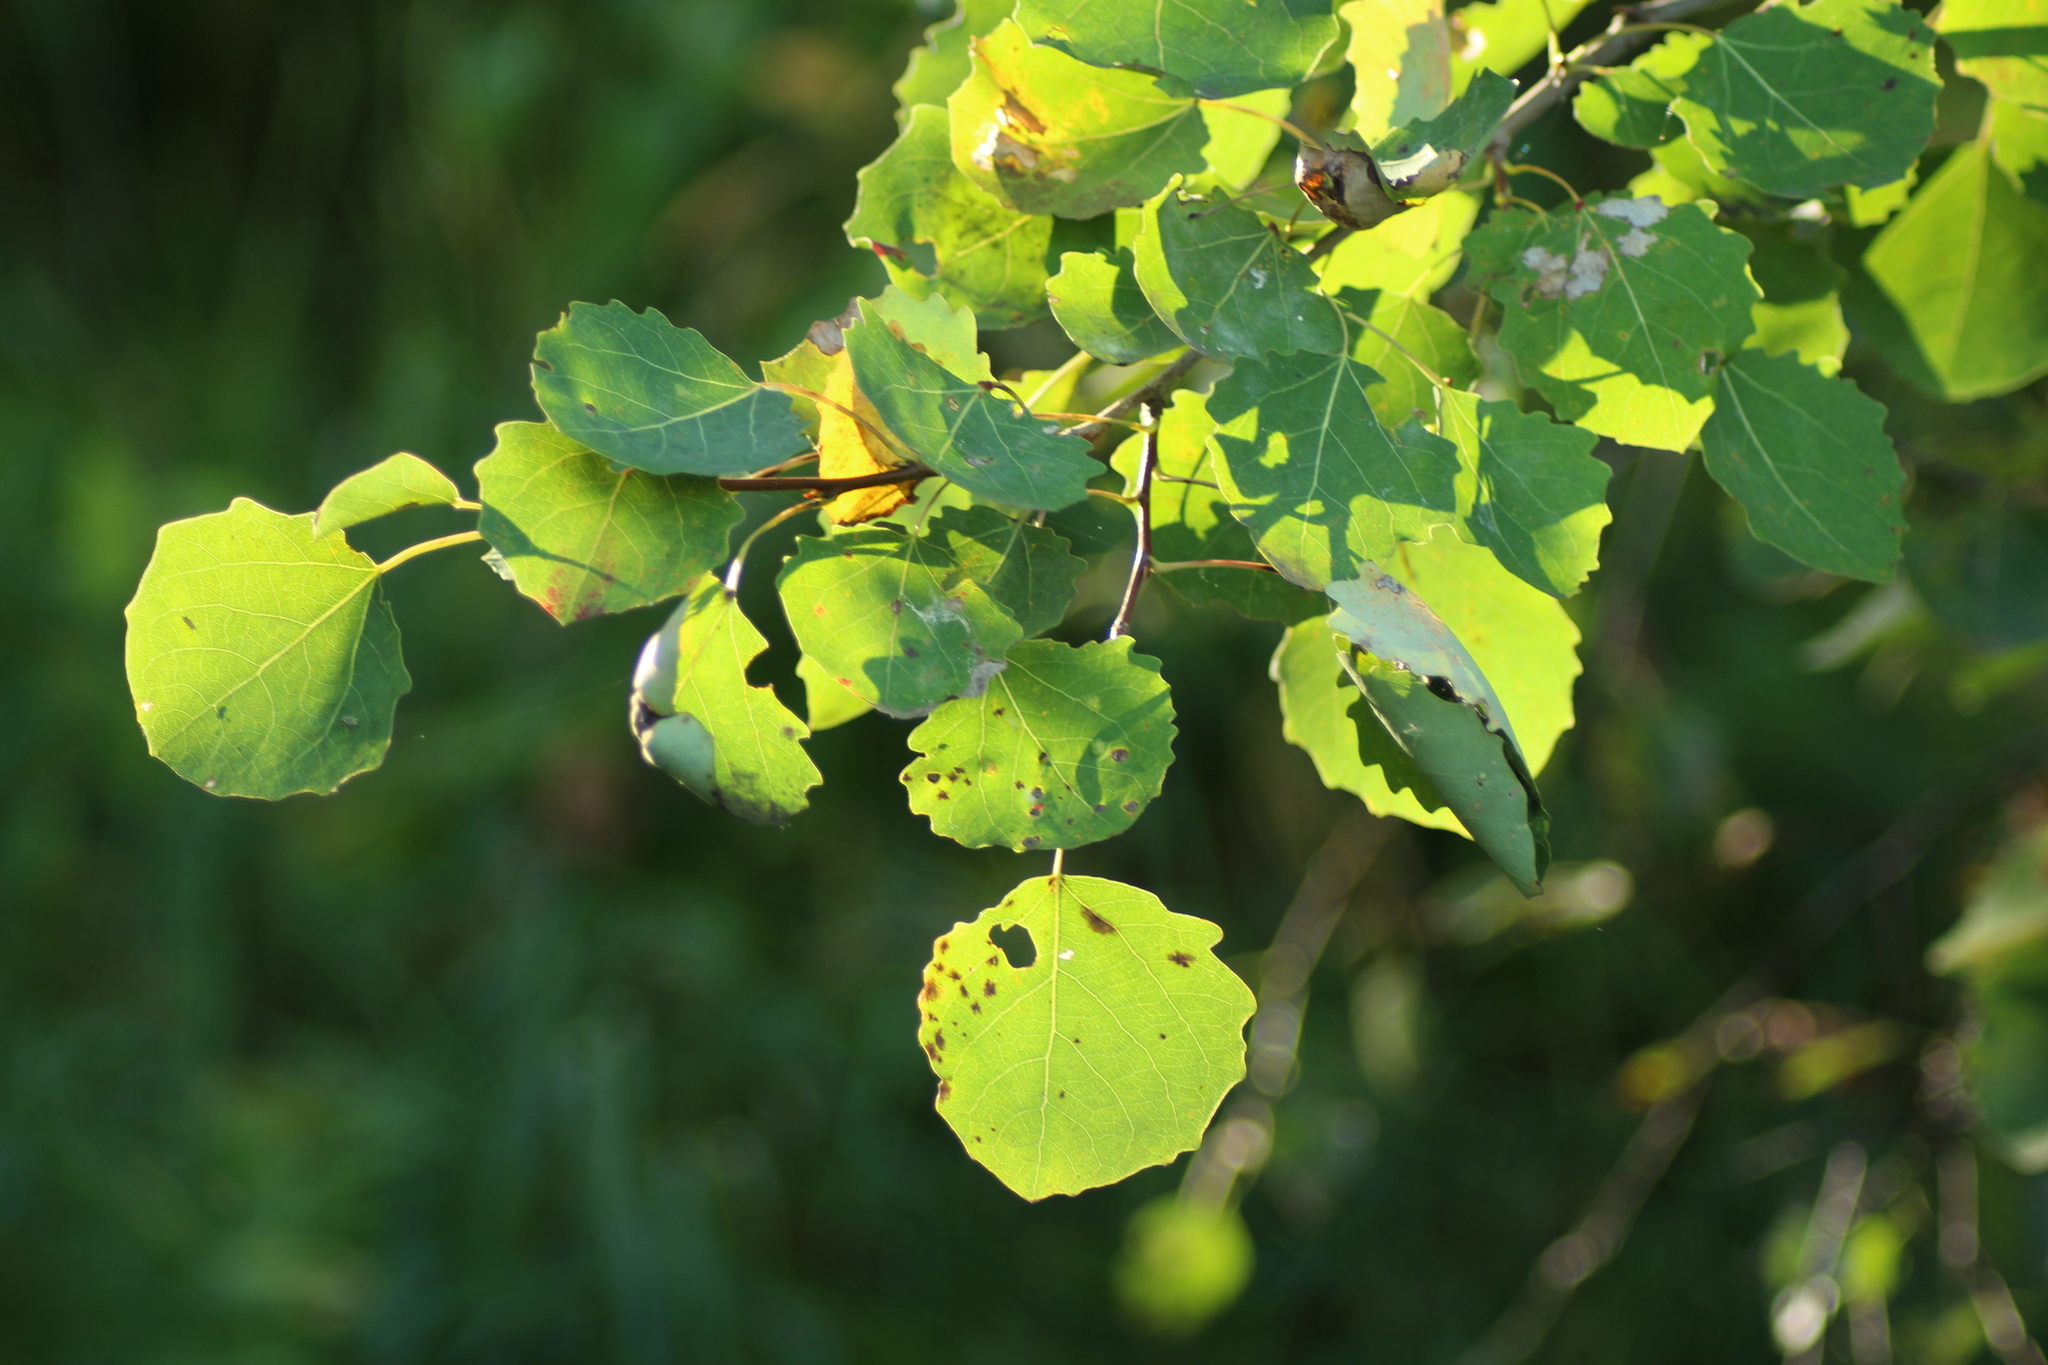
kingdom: Plantae
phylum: Tracheophyta
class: Magnoliopsida
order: Malpighiales
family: Salicaceae
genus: Populus
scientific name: Populus tremula
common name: European aspen
